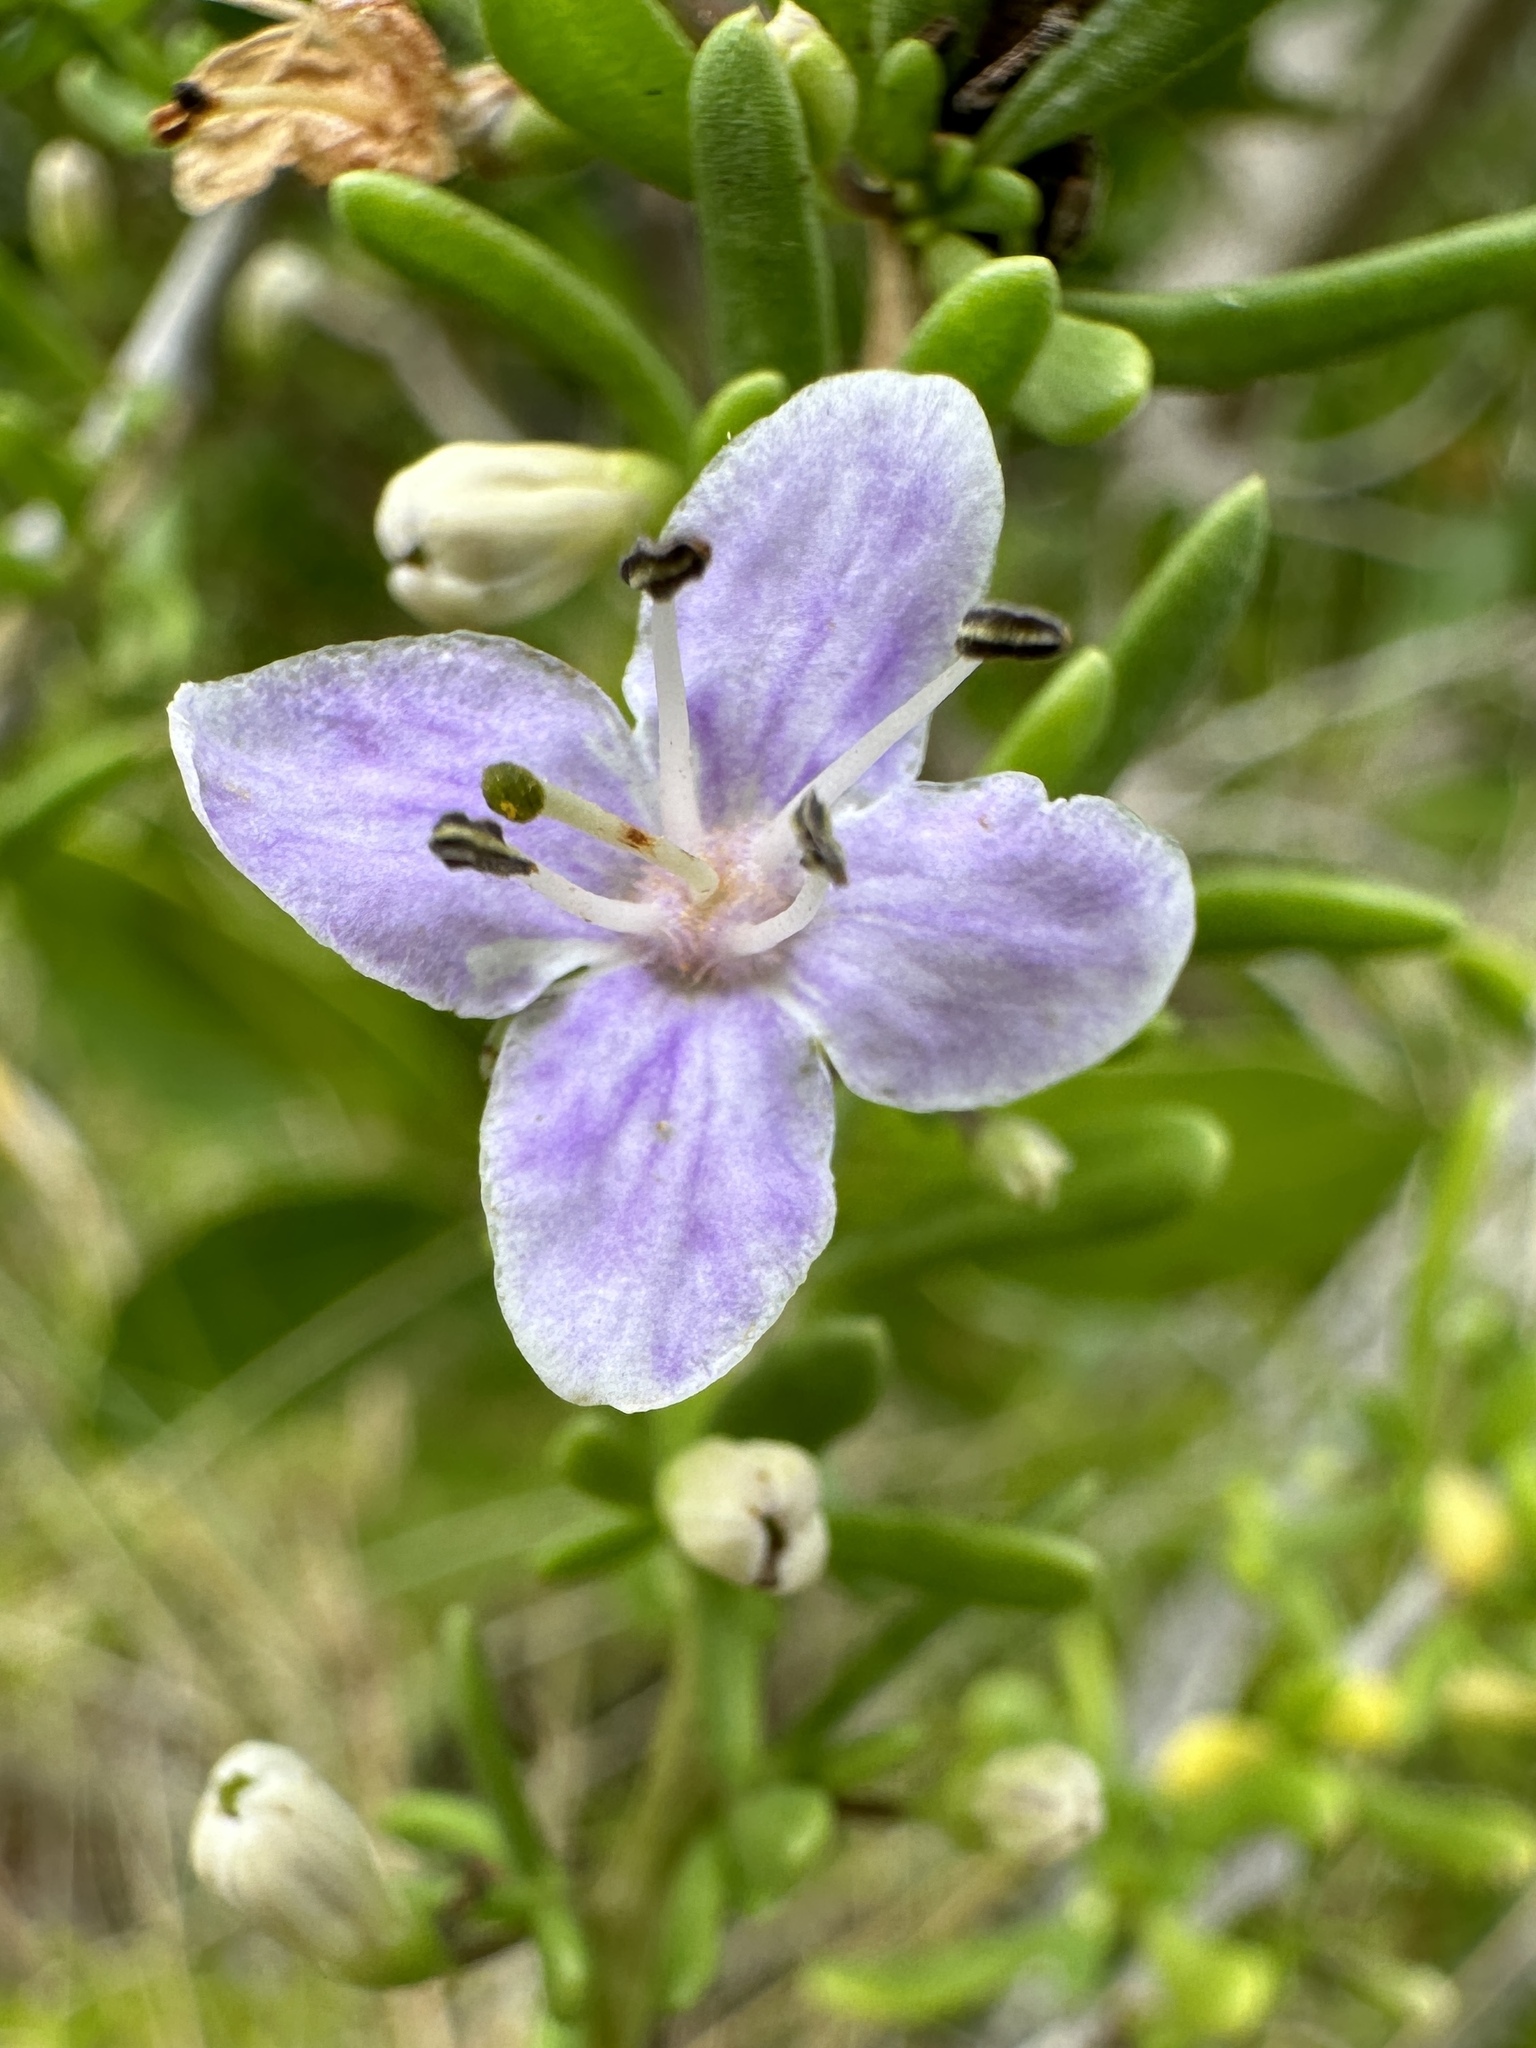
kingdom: Plantae
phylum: Tracheophyta
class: Magnoliopsida
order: Solanales
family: Solanaceae
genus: Lycium
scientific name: Lycium carolinianum
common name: Christmasberry
